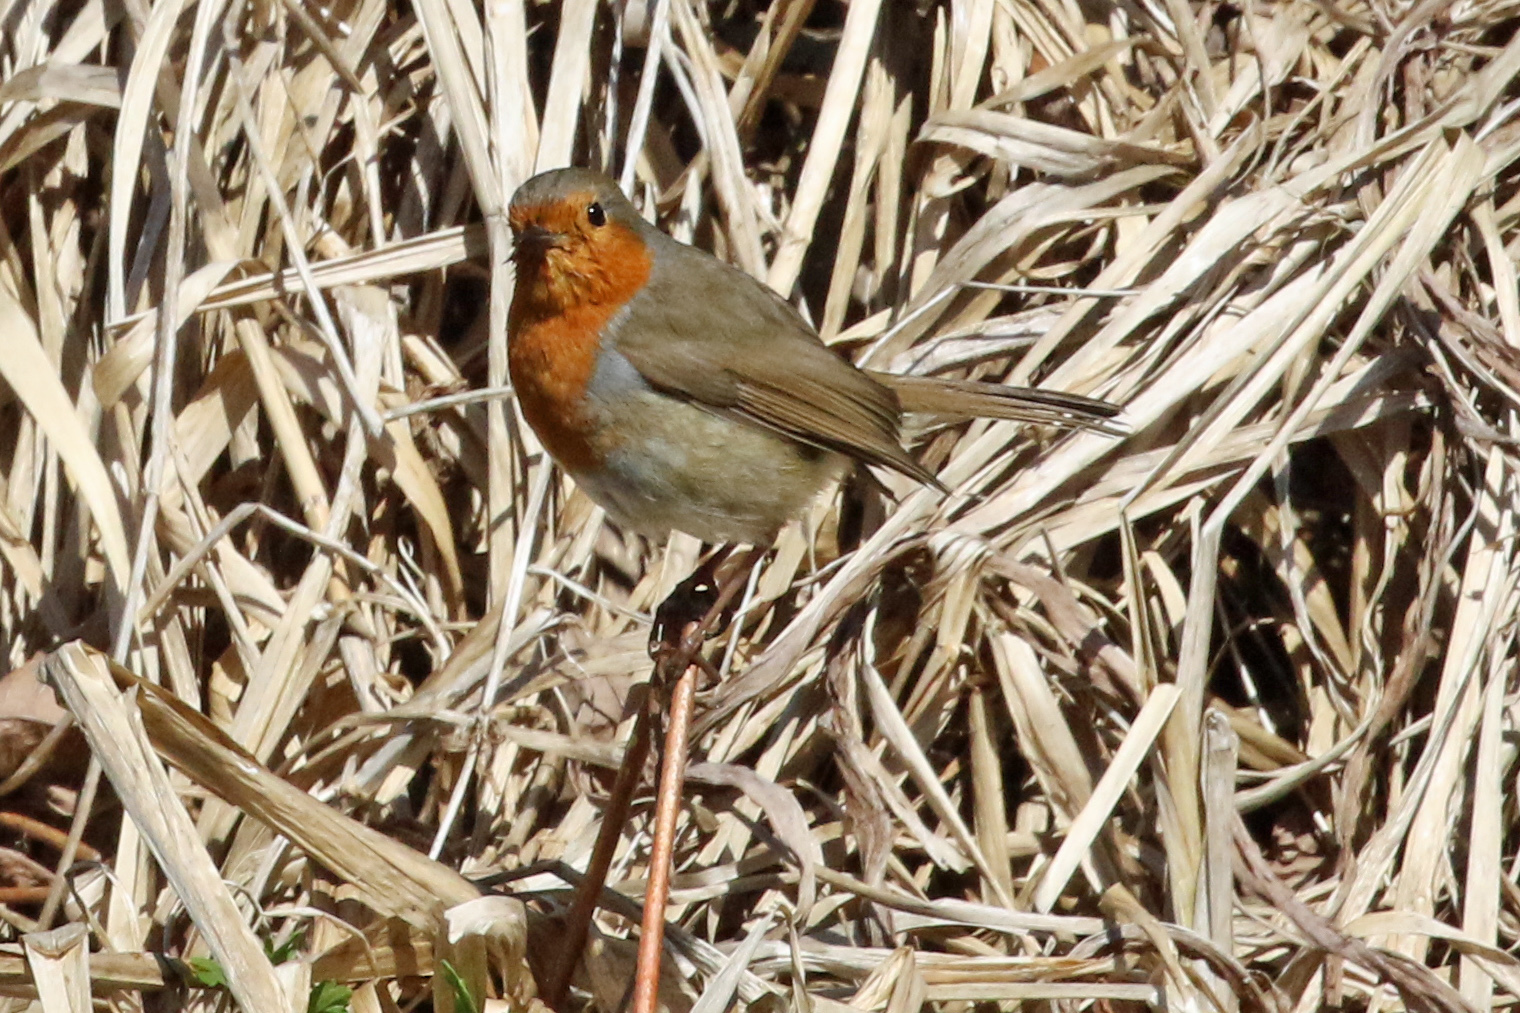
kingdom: Animalia
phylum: Chordata
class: Aves
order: Passeriformes
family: Muscicapidae
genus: Erithacus
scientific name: Erithacus rubecula
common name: European robin
